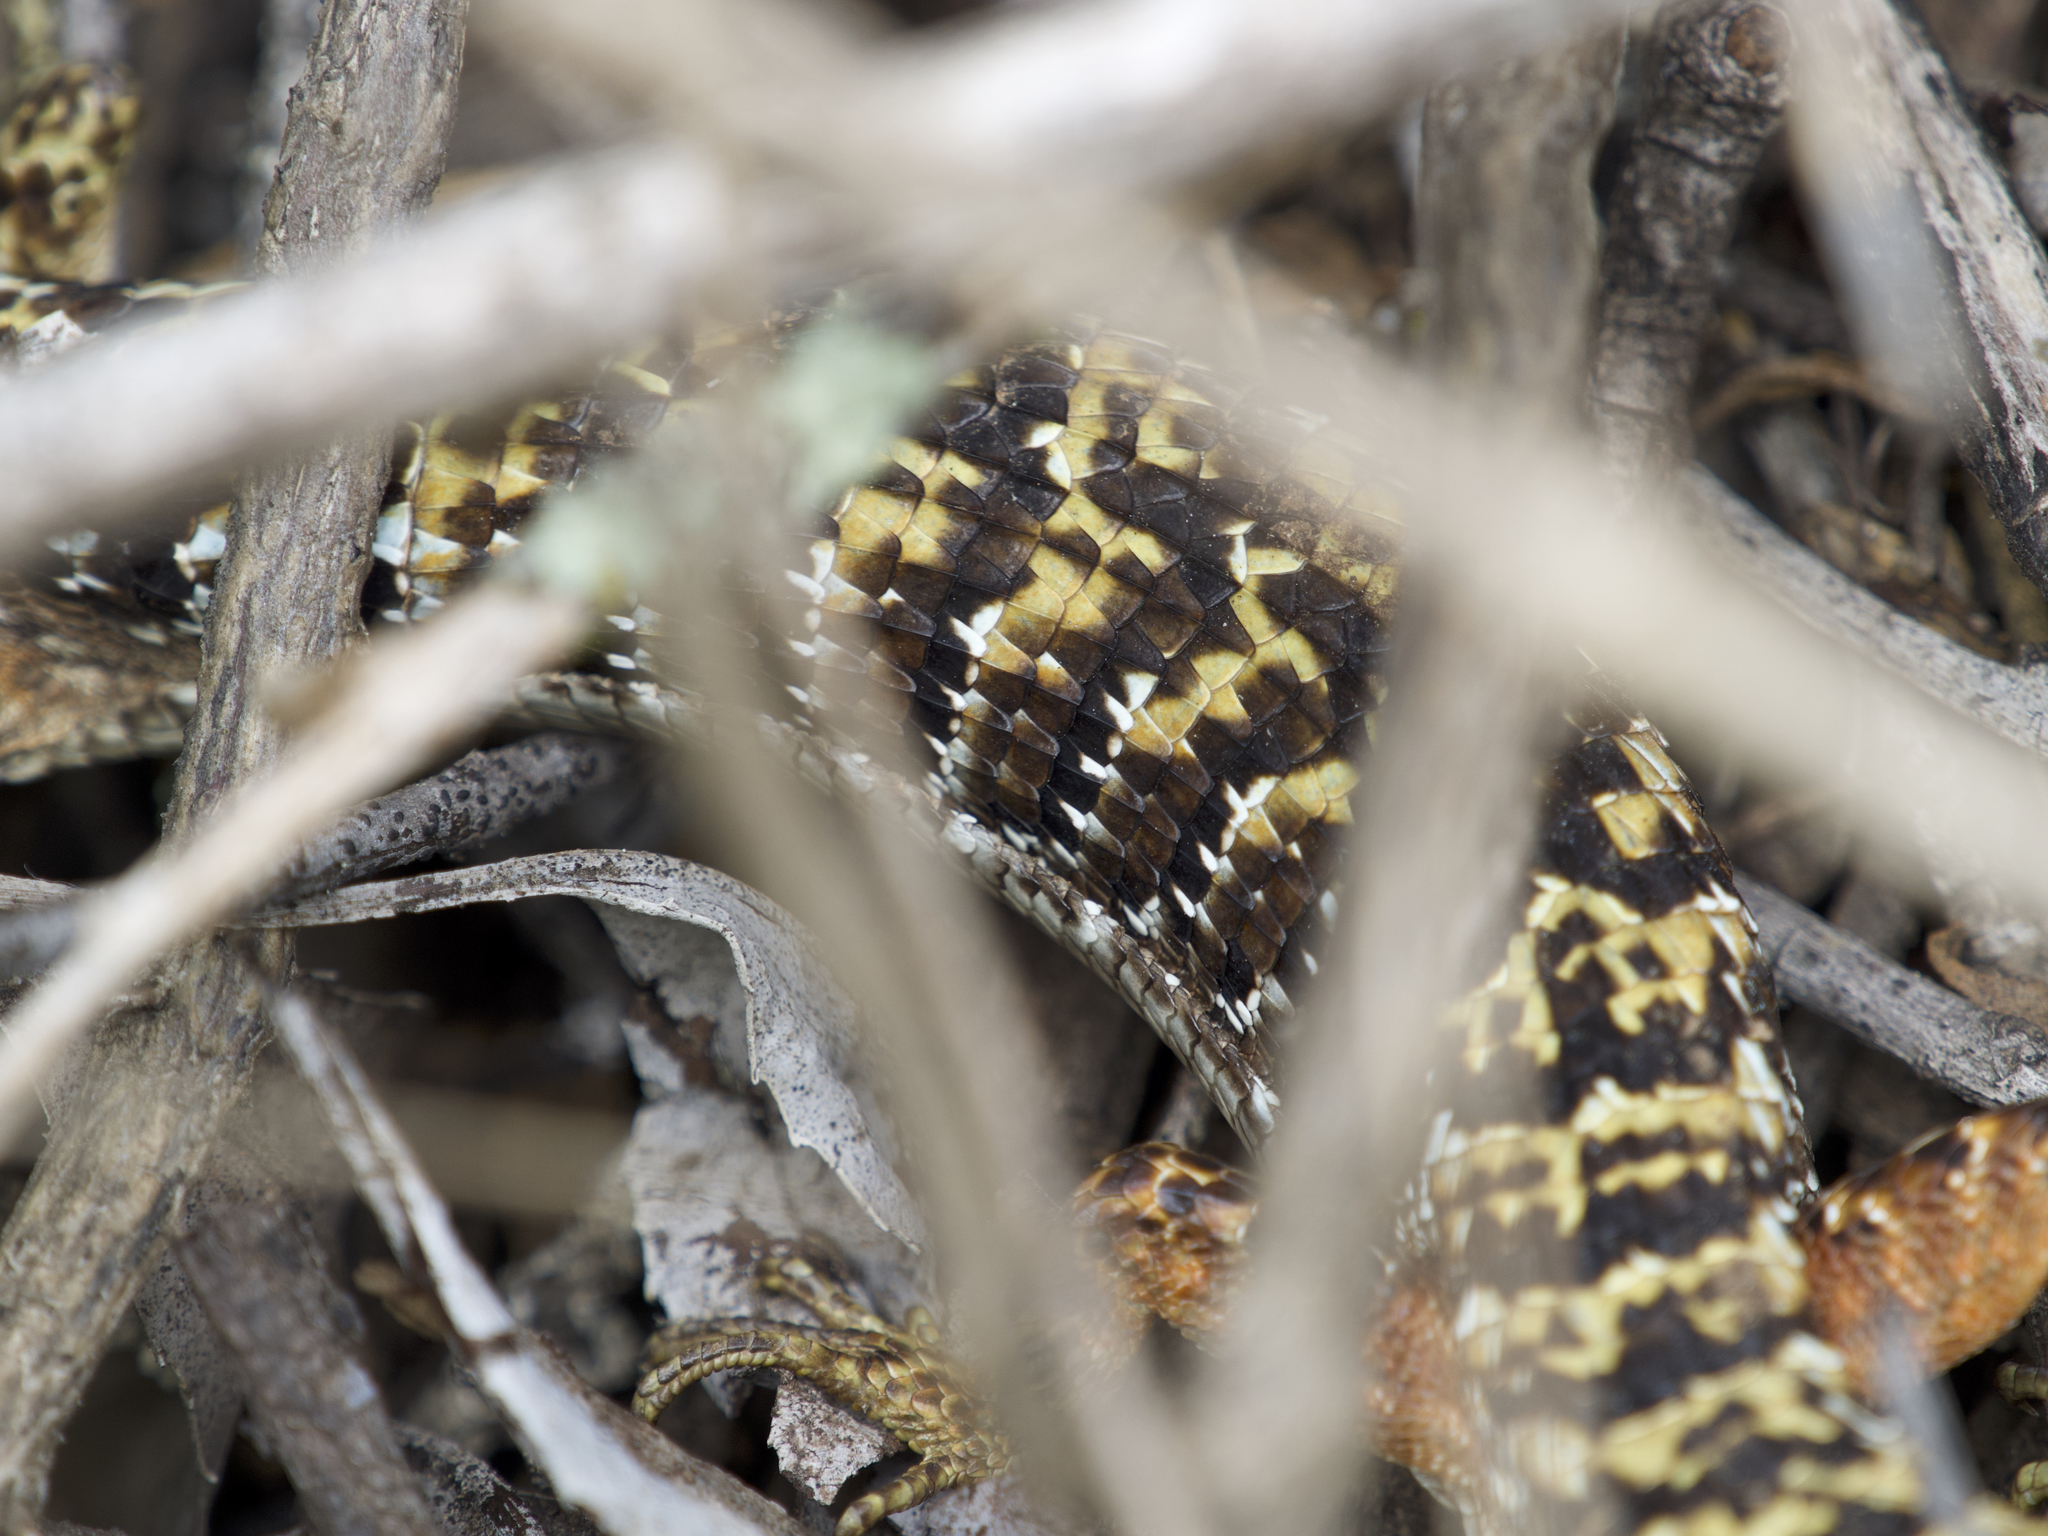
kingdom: Animalia
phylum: Chordata
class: Squamata
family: Anguidae
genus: Elgaria
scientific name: Elgaria multicarinata
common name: Southern alligator lizard
